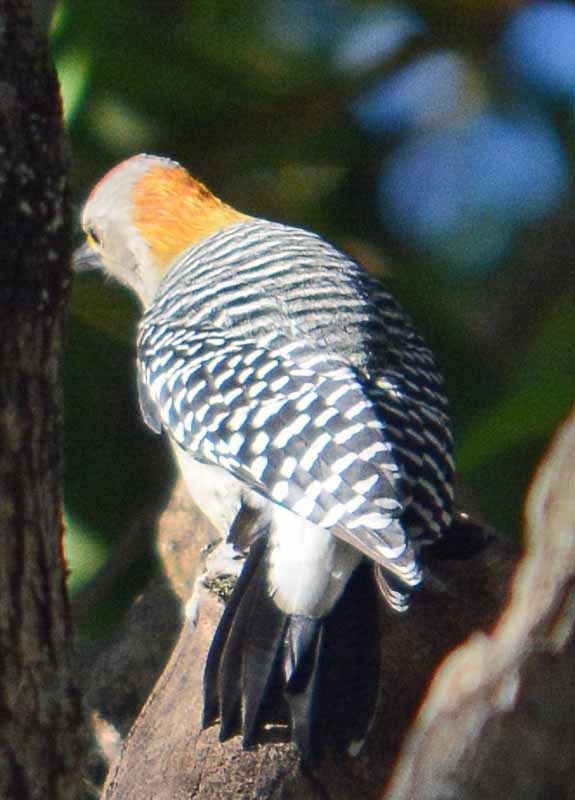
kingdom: Animalia
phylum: Chordata
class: Aves
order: Piciformes
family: Picidae
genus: Melanerpes
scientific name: Melanerpes aurifrons
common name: Golden-fronted woodpecker
